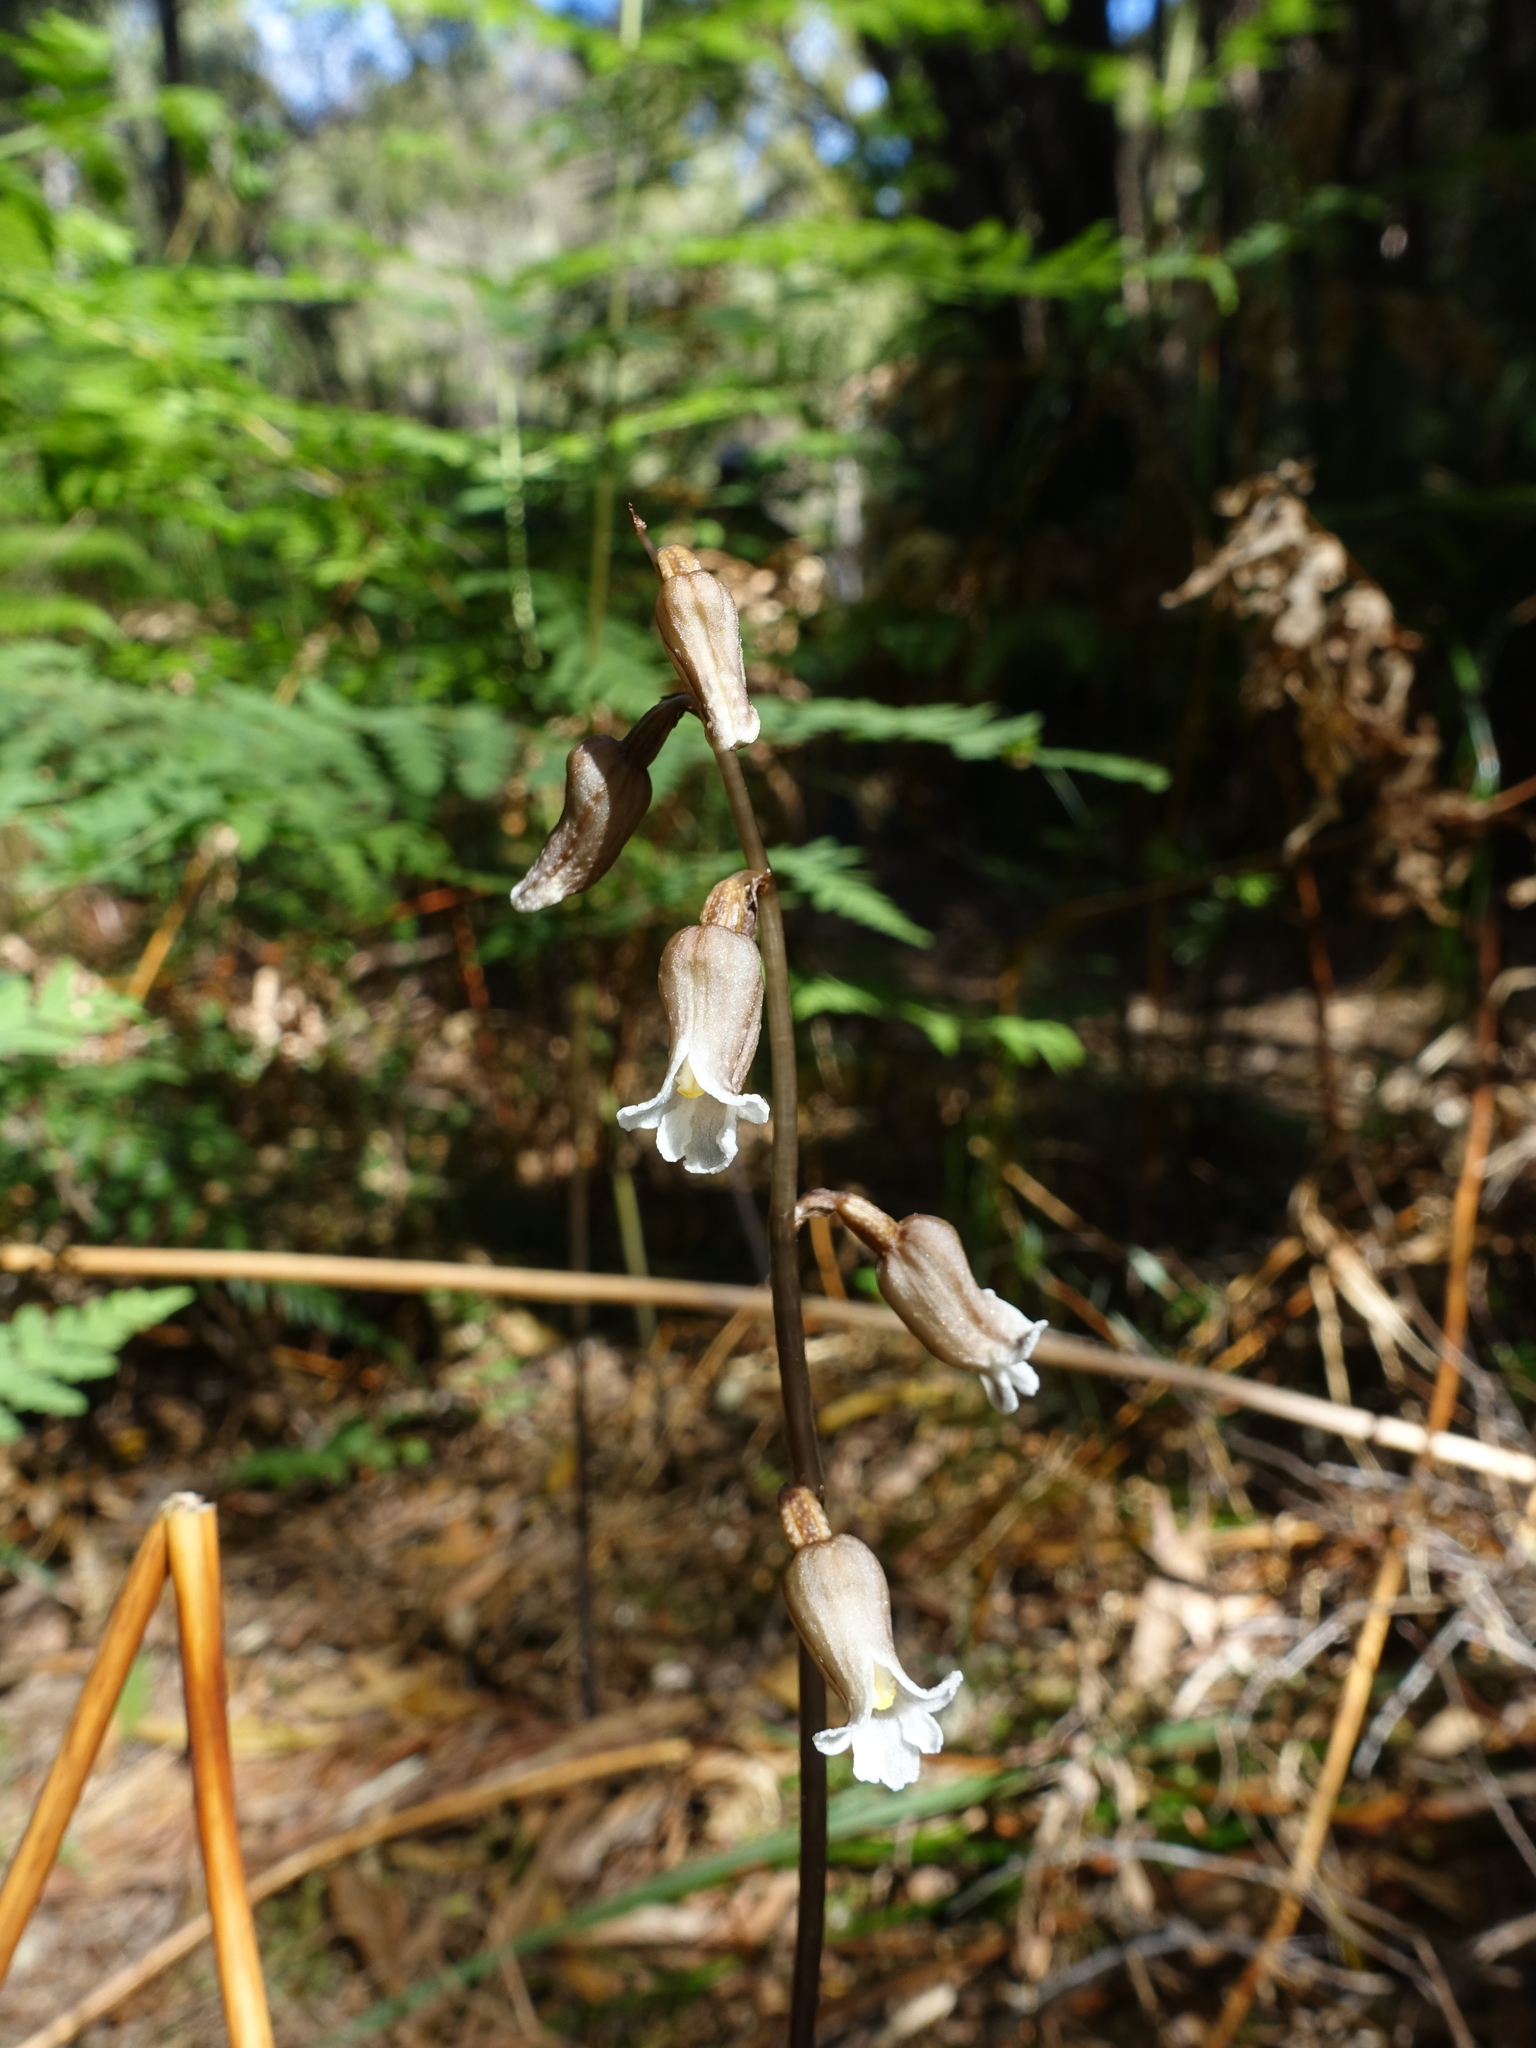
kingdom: Plantae
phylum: Tracheophyta
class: Liliopsida
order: Asparagales
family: Orchidaceae
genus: Gastrodia
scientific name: Gastrodia procera
